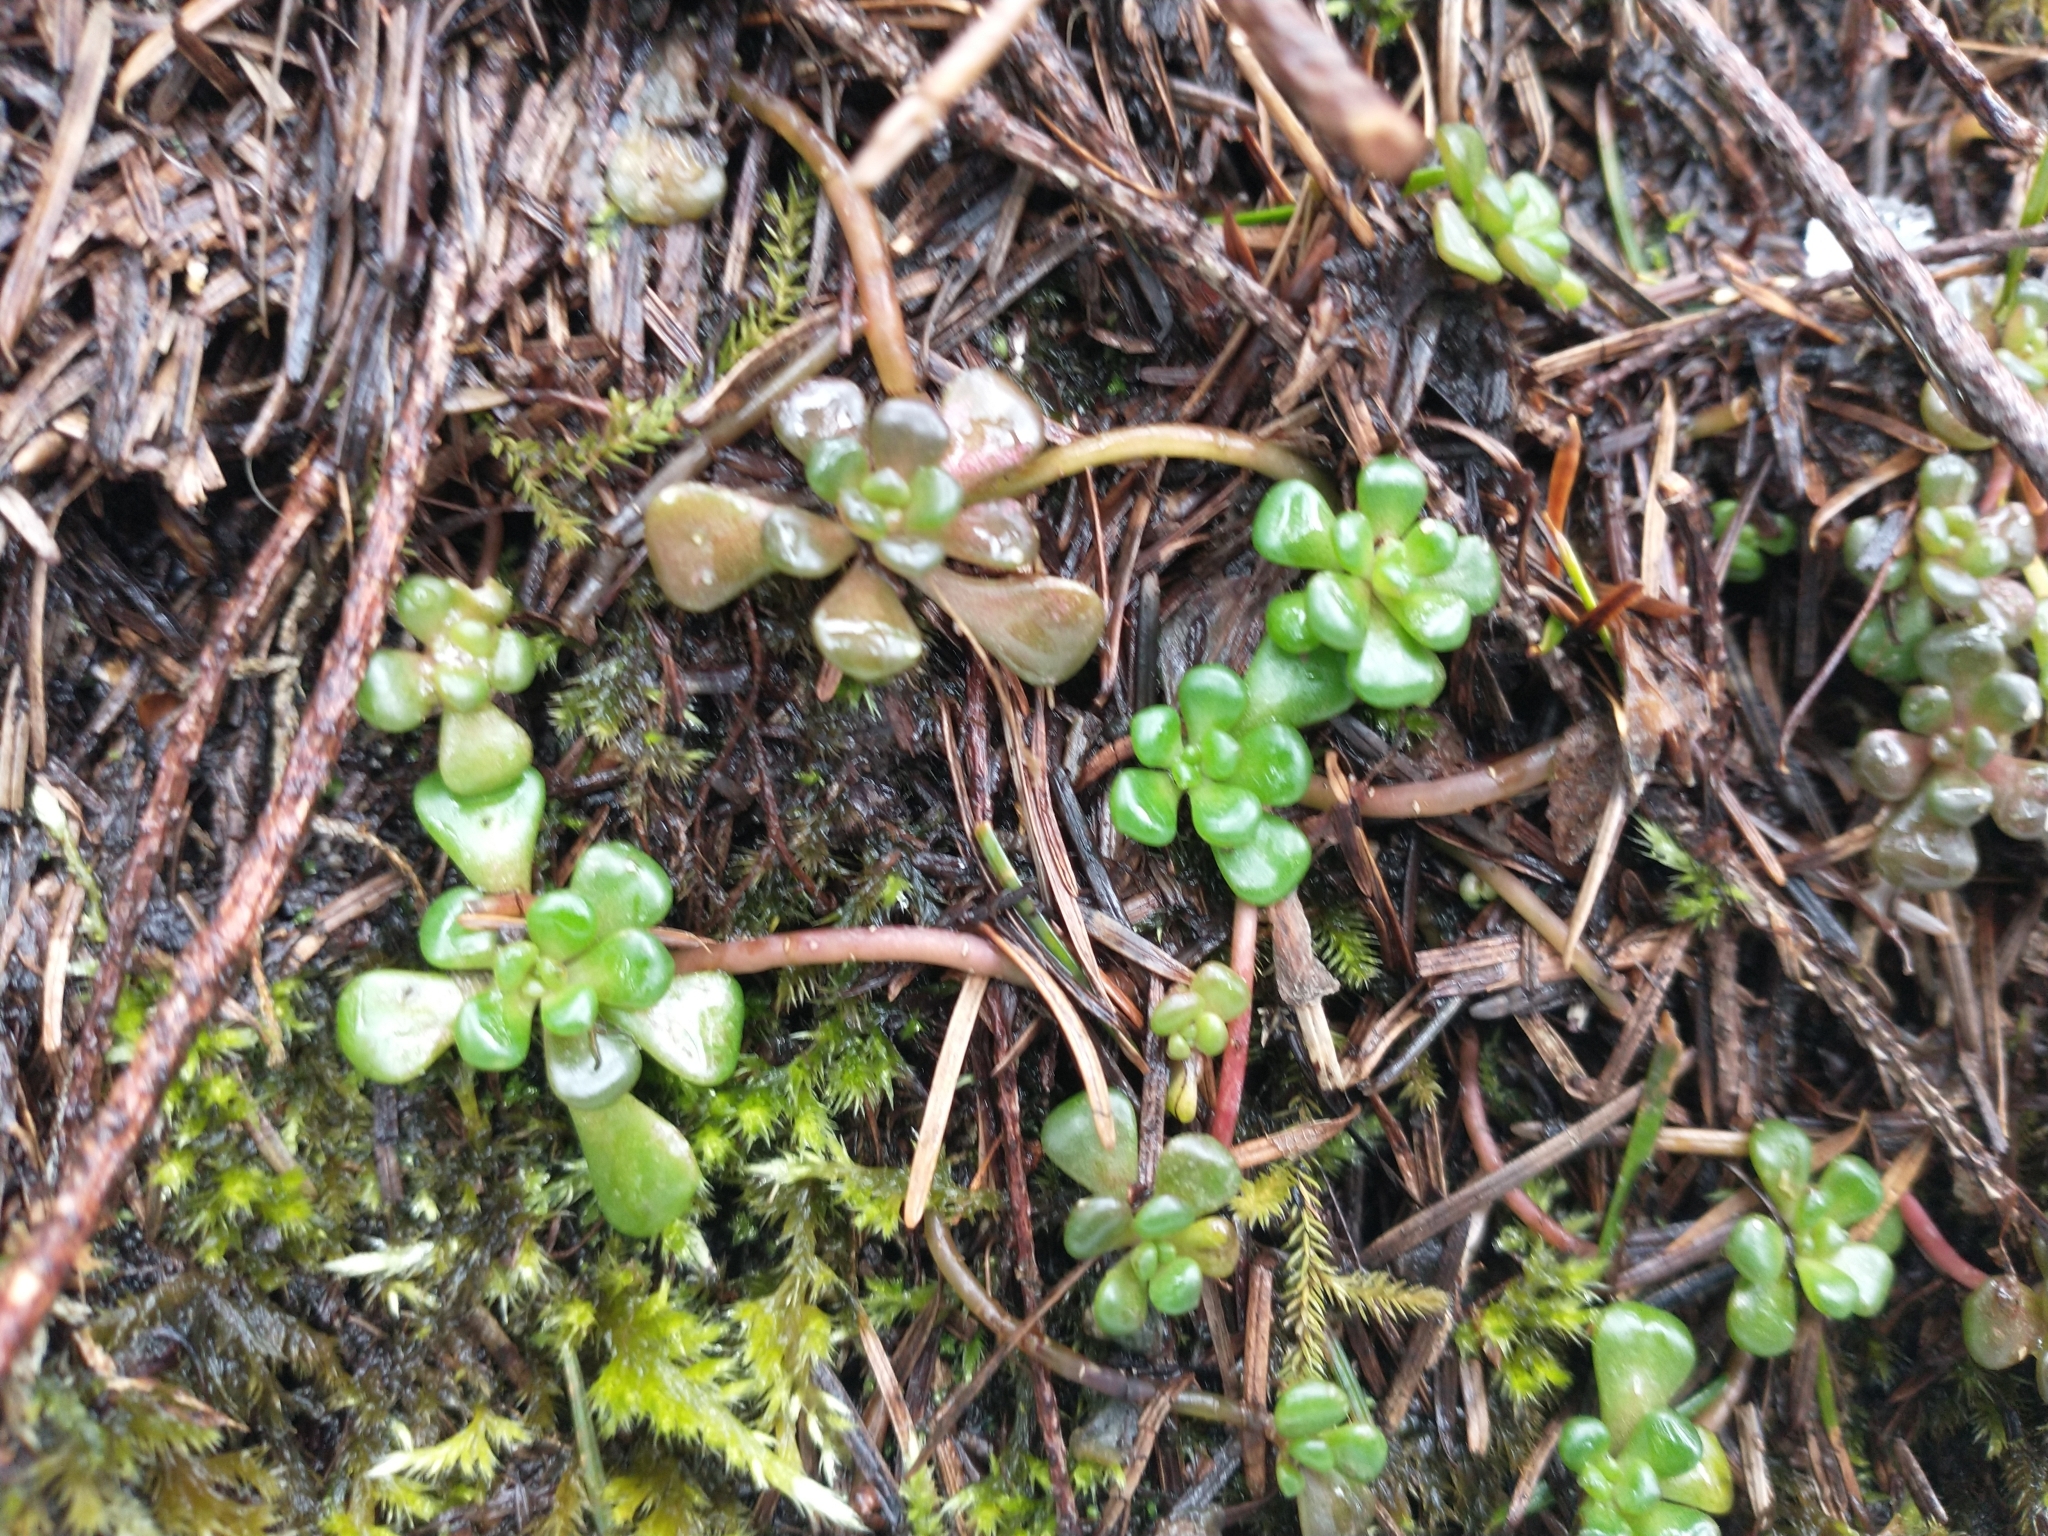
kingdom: Plantae
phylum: Tracheophyta
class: Magnoliopsida
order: Saxifragales
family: Crassulaceae
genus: Sedum
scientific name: Sedum oreganum
